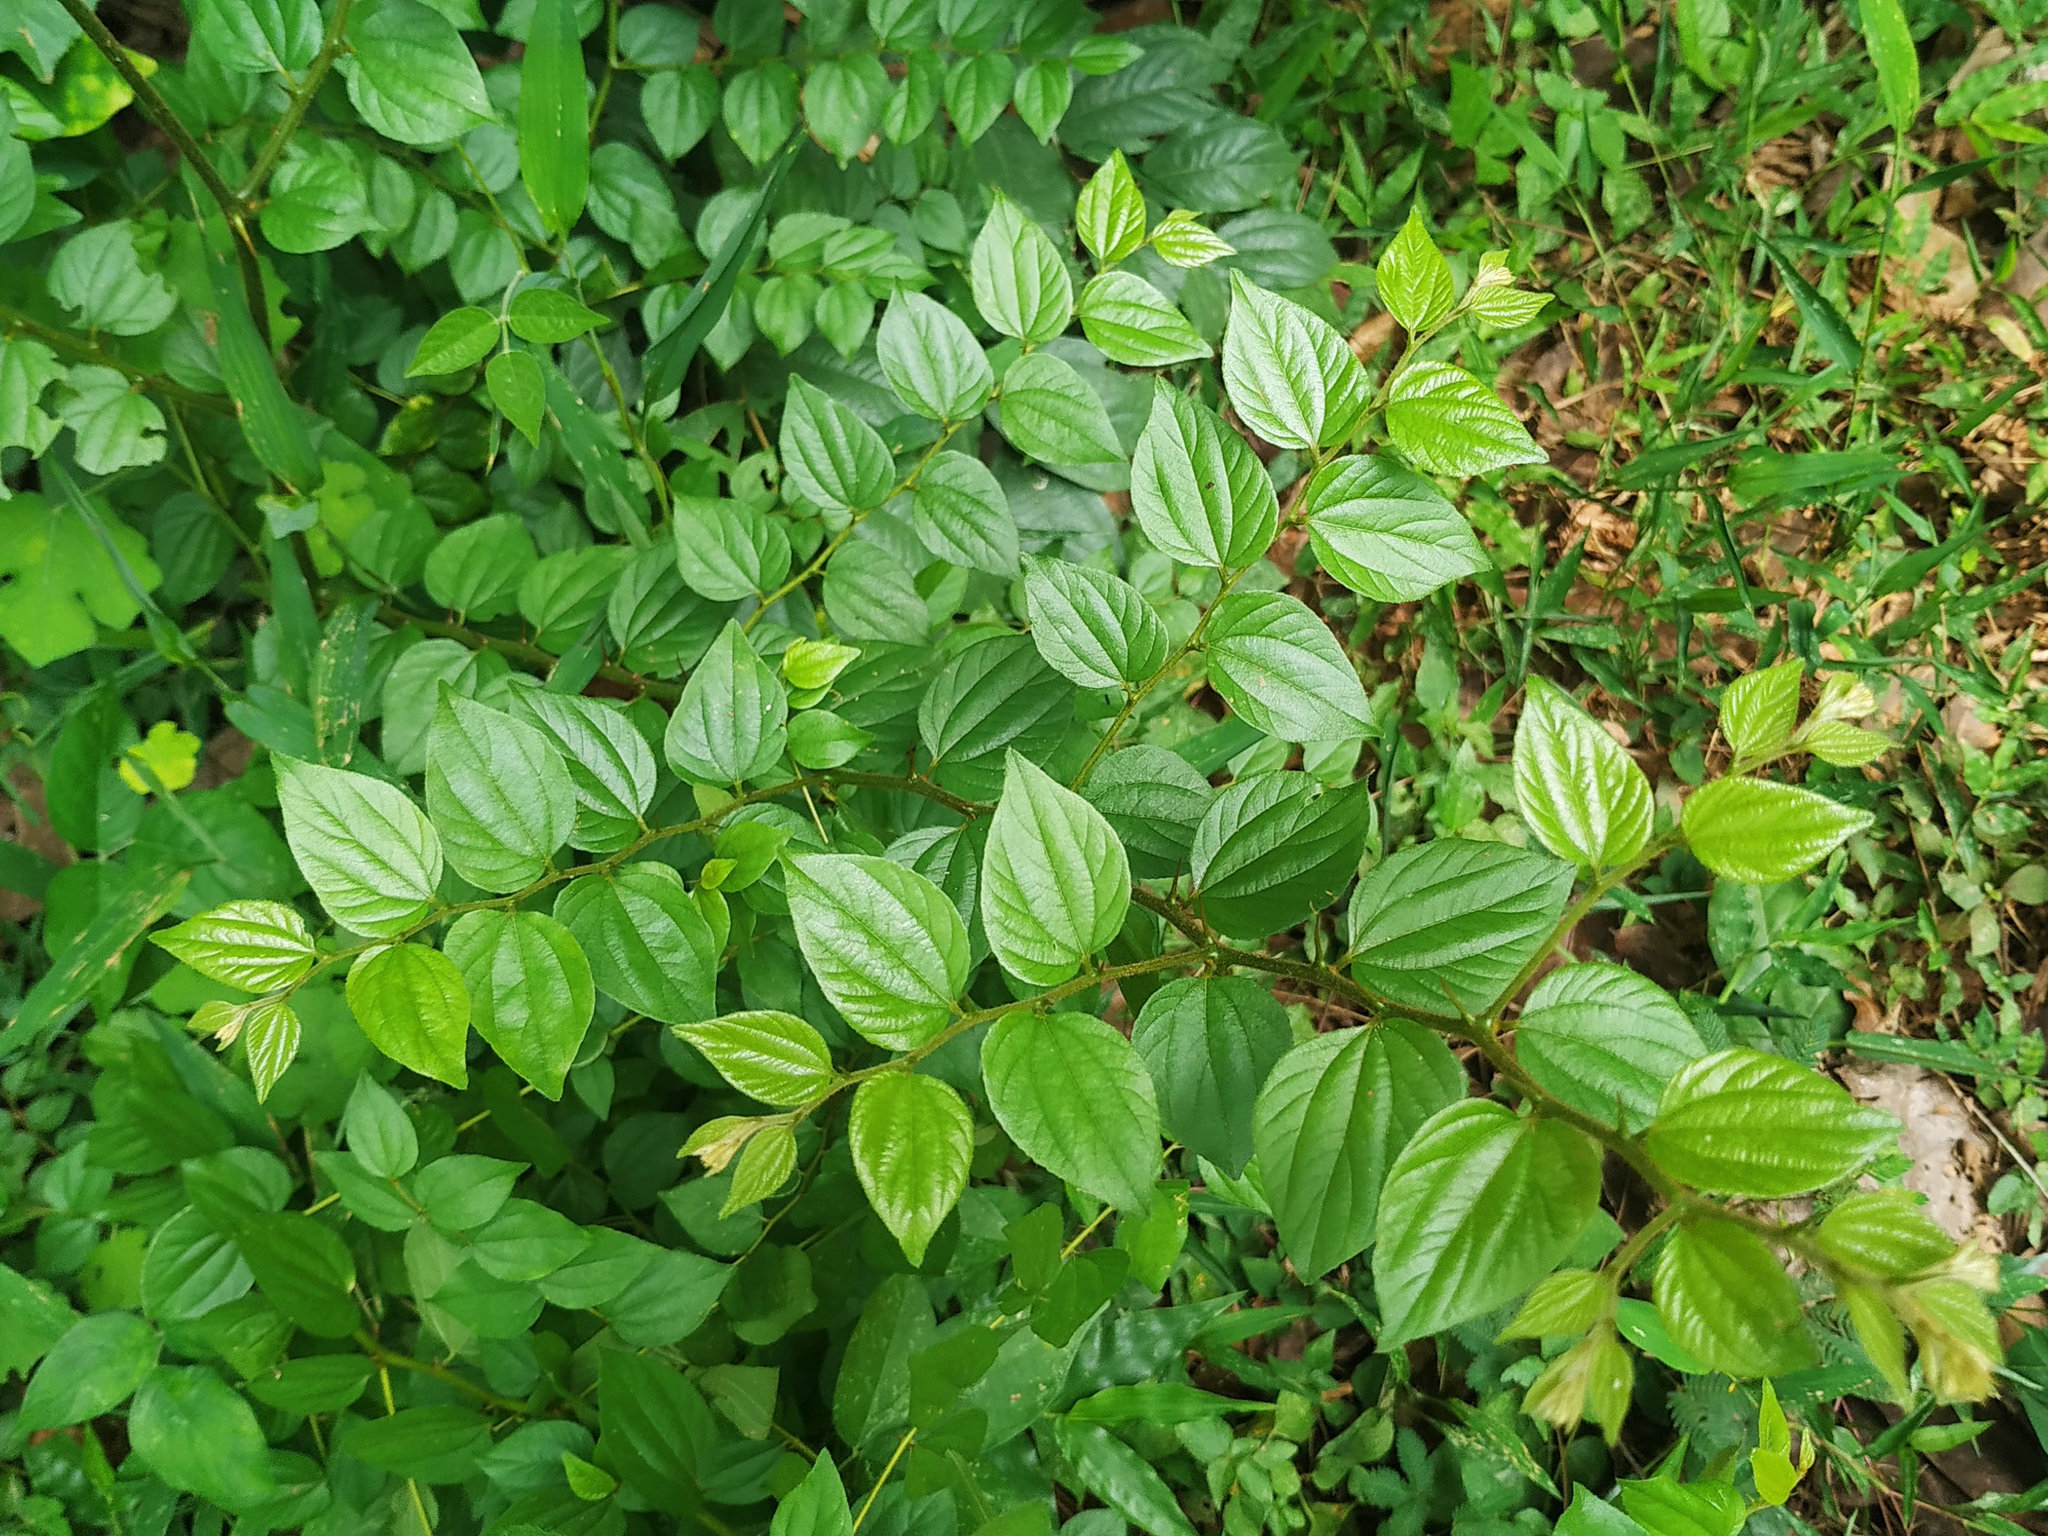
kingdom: Plantae
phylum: Tracheophyta
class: Magnoliopsida
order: Rosales
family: Rhamnaceae
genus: Ziziphus
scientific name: Ziziphus oenopolia
